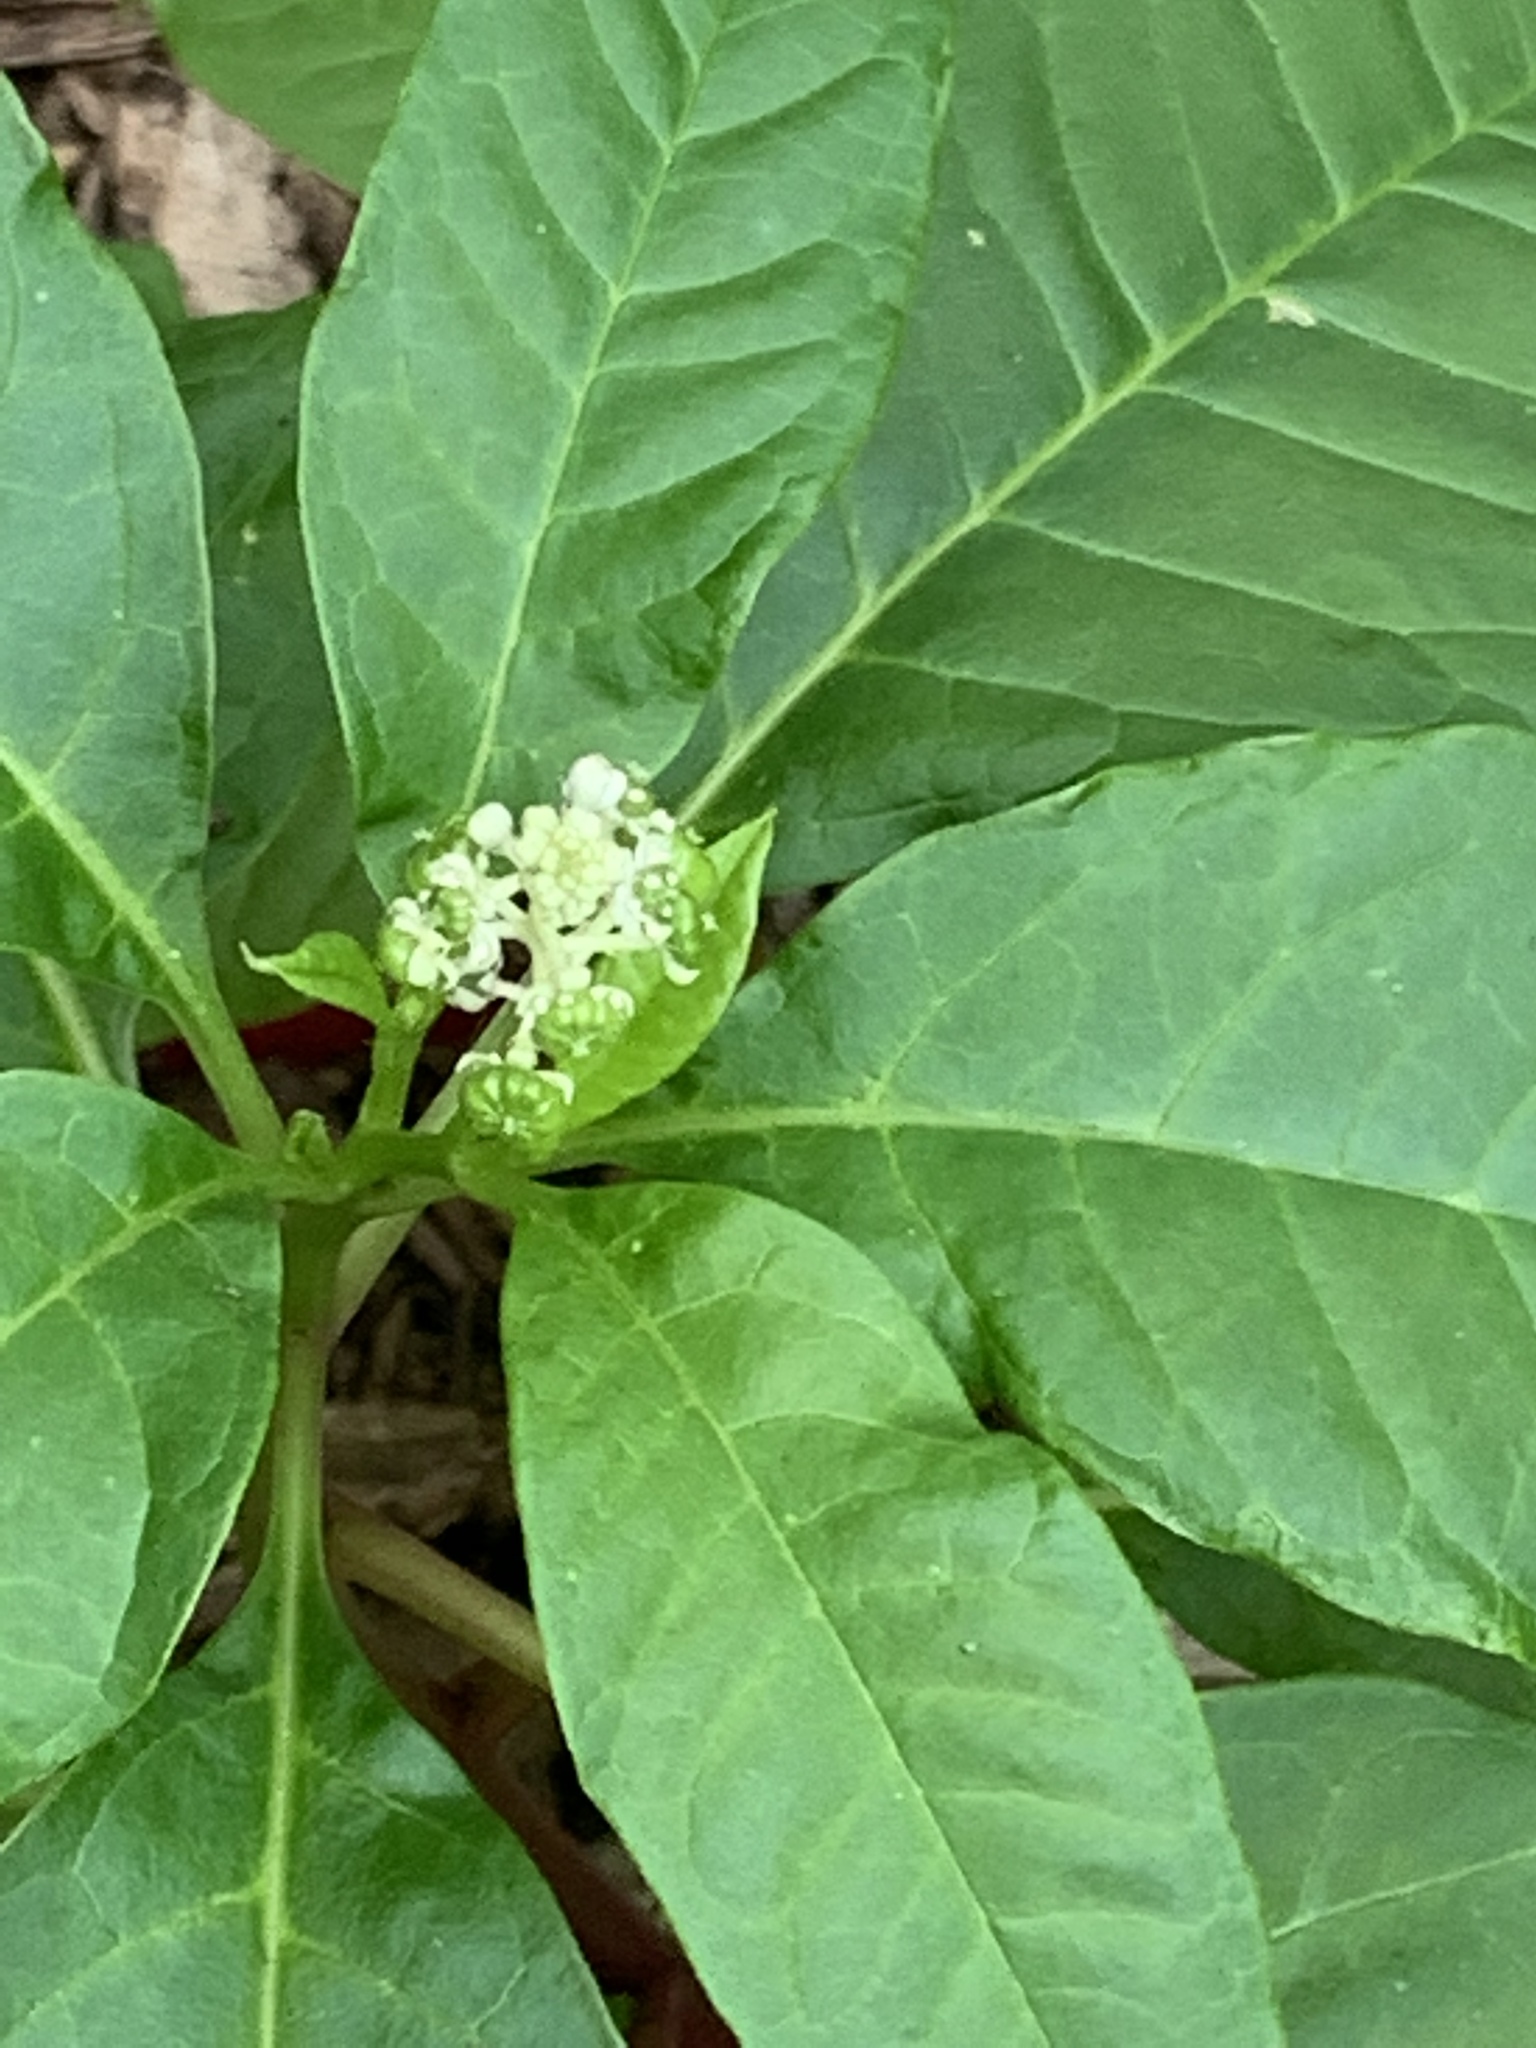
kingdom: Plantae
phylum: Tracheophyta
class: Magnoliopsida
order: Caryophyllales
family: Phytolaccaceae
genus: Phytolacca
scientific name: Phytolacca americana
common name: American pokeweed
